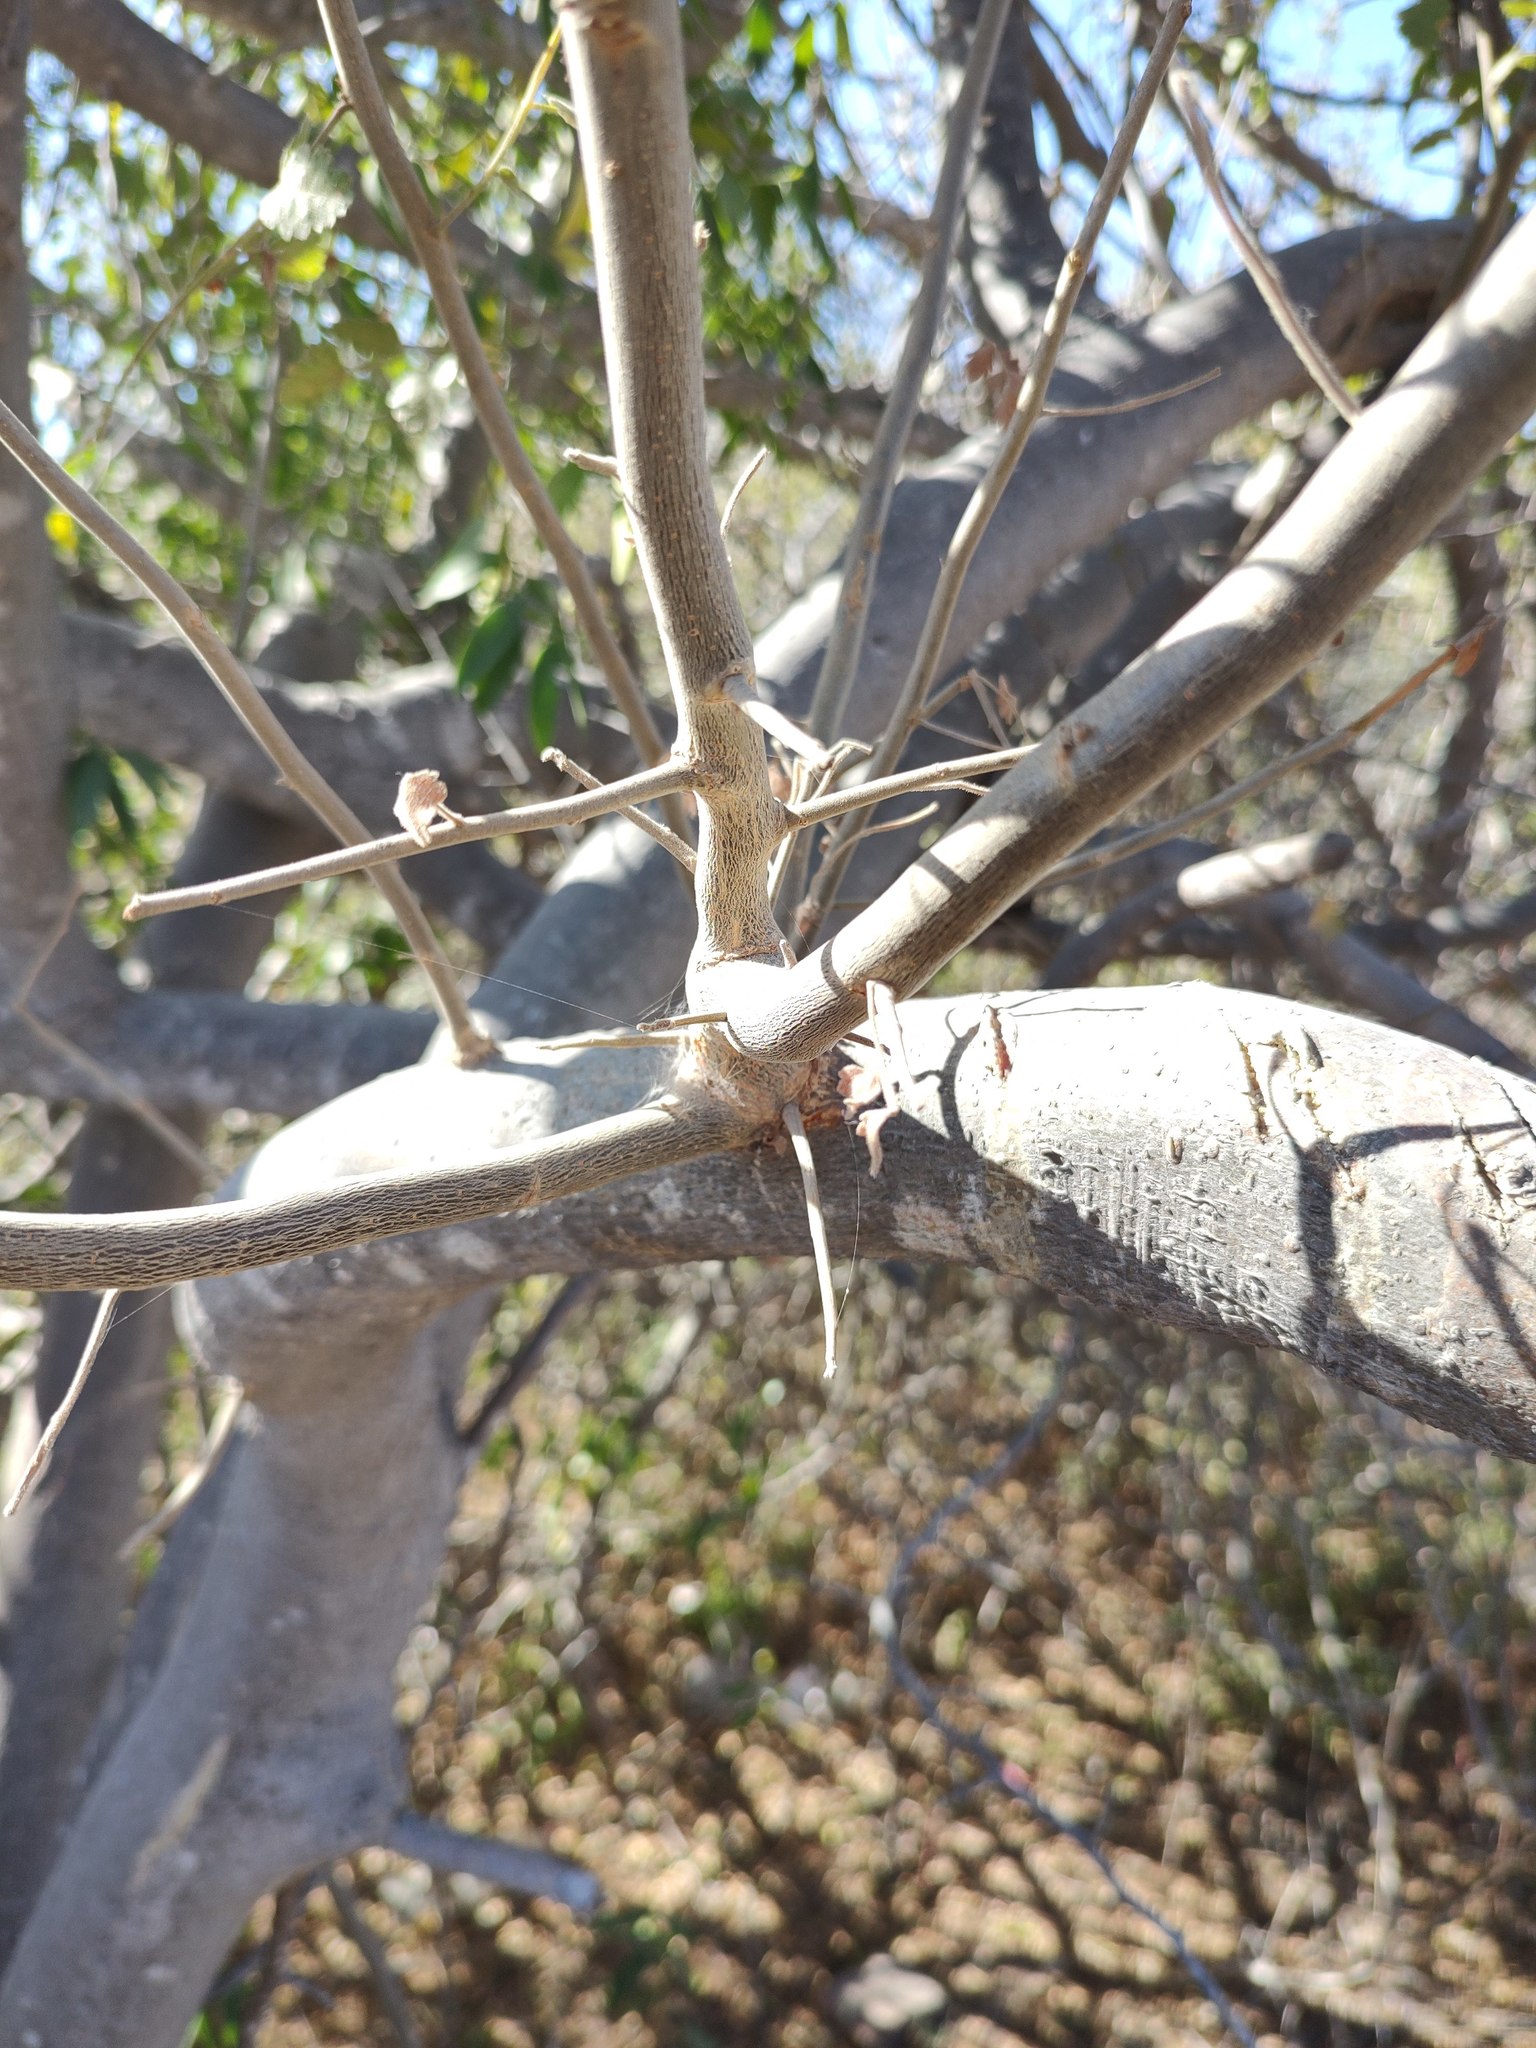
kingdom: Plantae
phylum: Tracheophyta
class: Magnoliopsida
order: Sapindales
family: Burseraceae
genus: Bursera
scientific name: Bursera filicifolia
